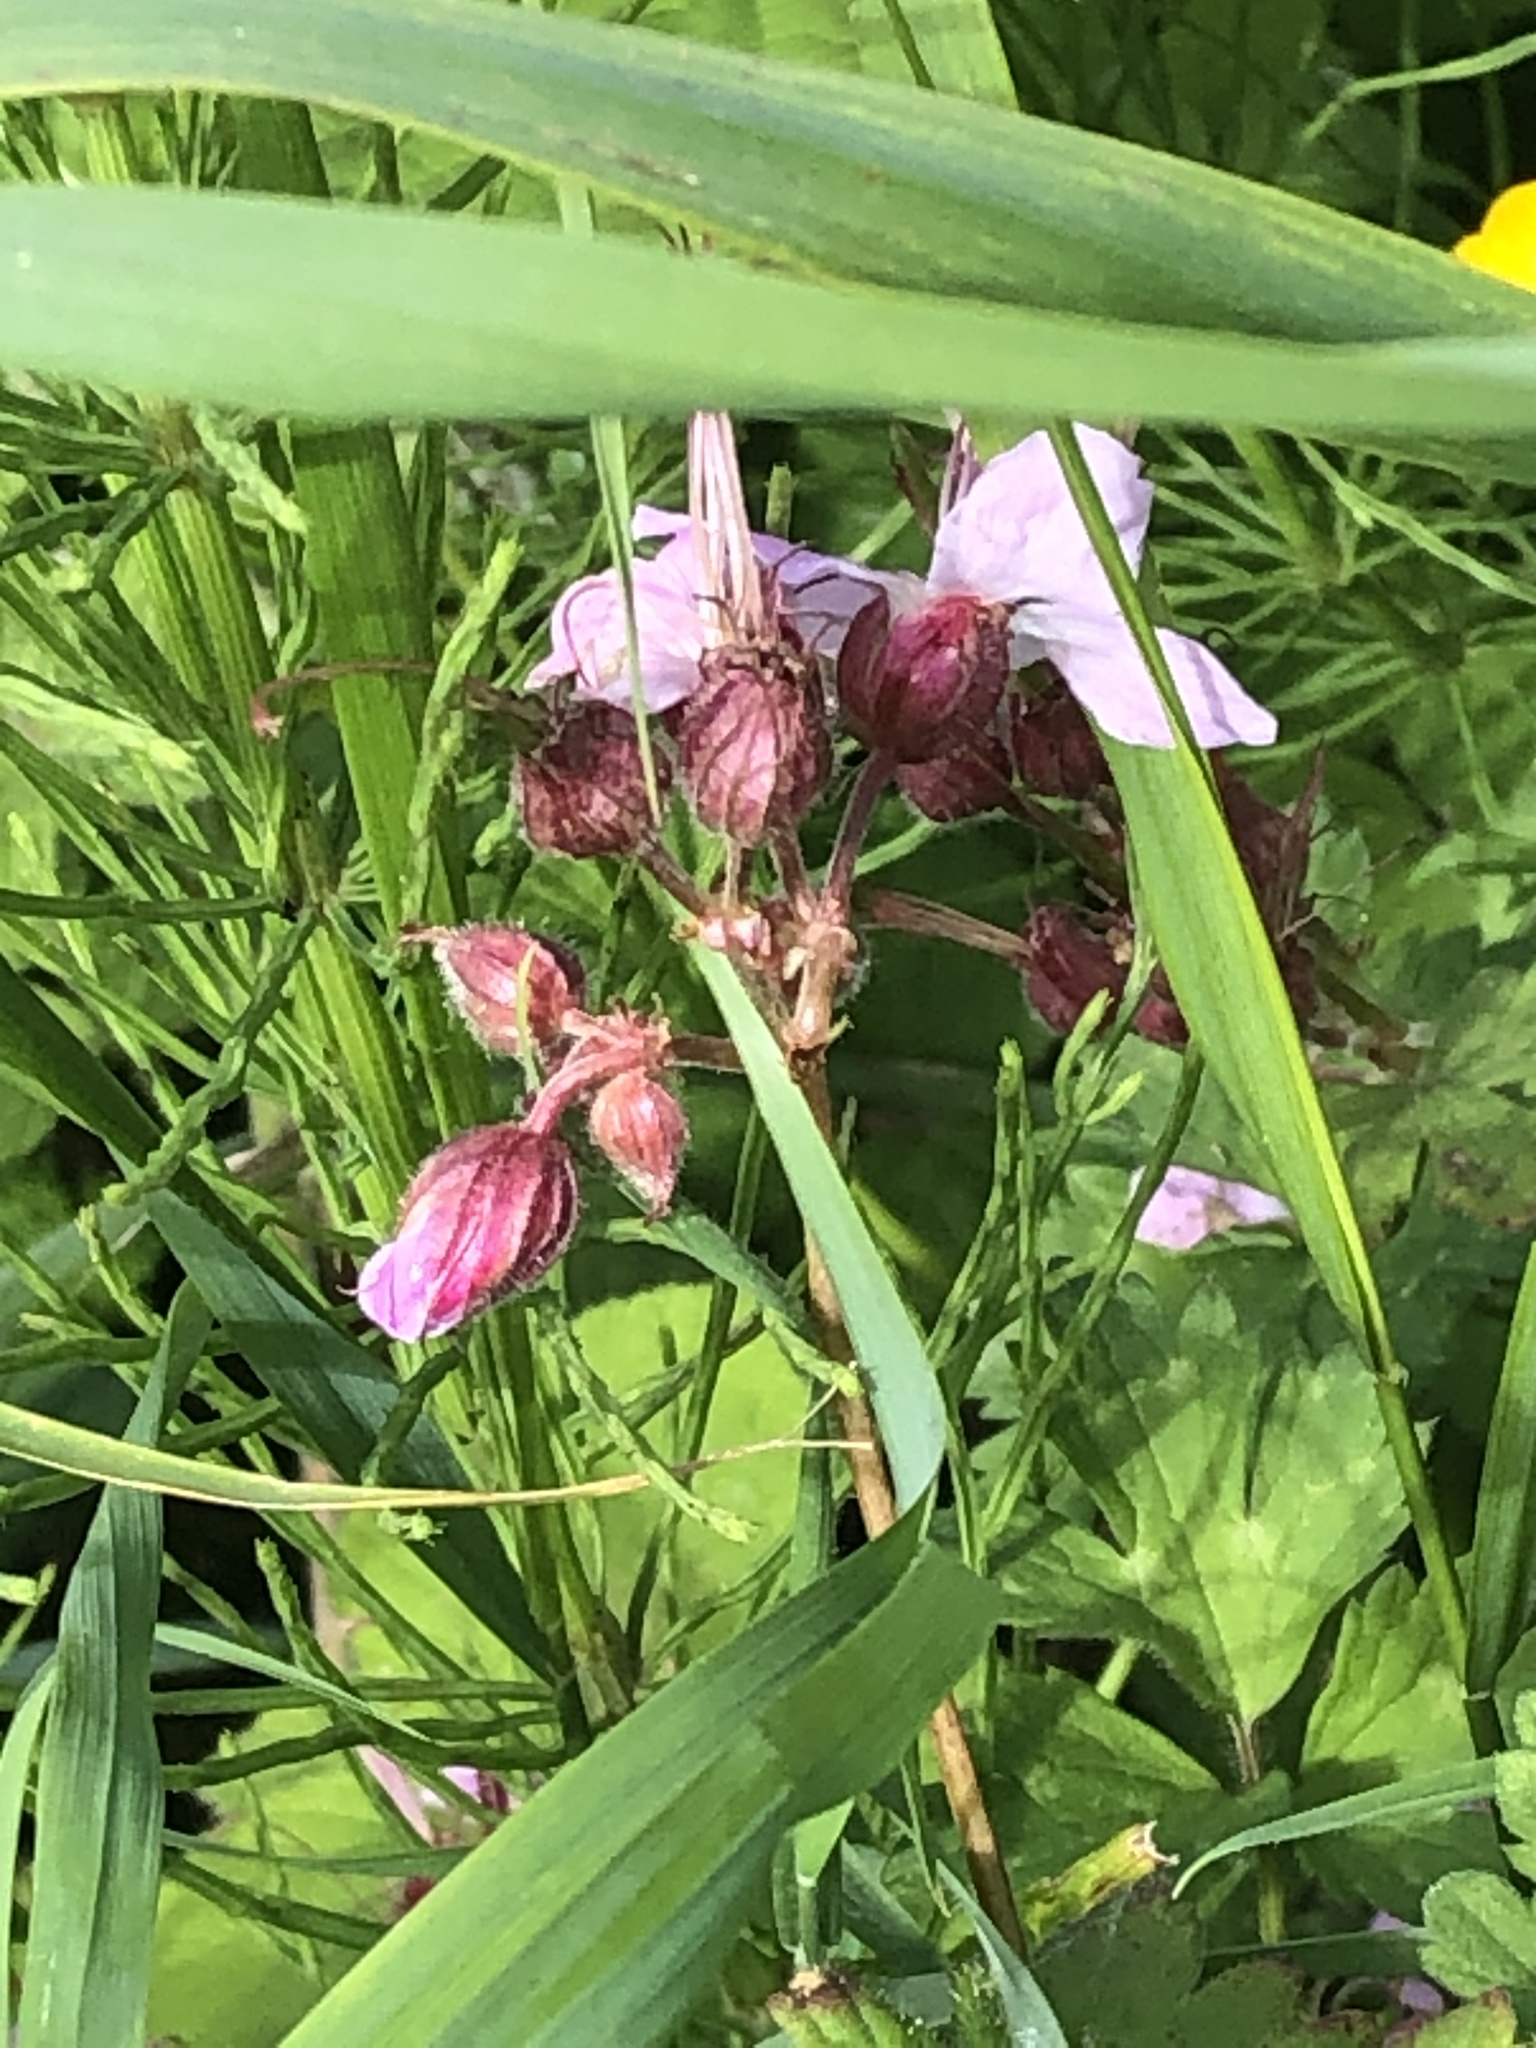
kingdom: Plantae
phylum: Tracheophyta
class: Magnoliopsida
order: Geraniales
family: Geraniaceae
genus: Geranium
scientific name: Geranium macrorrhizum
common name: Rock crane's-bill
